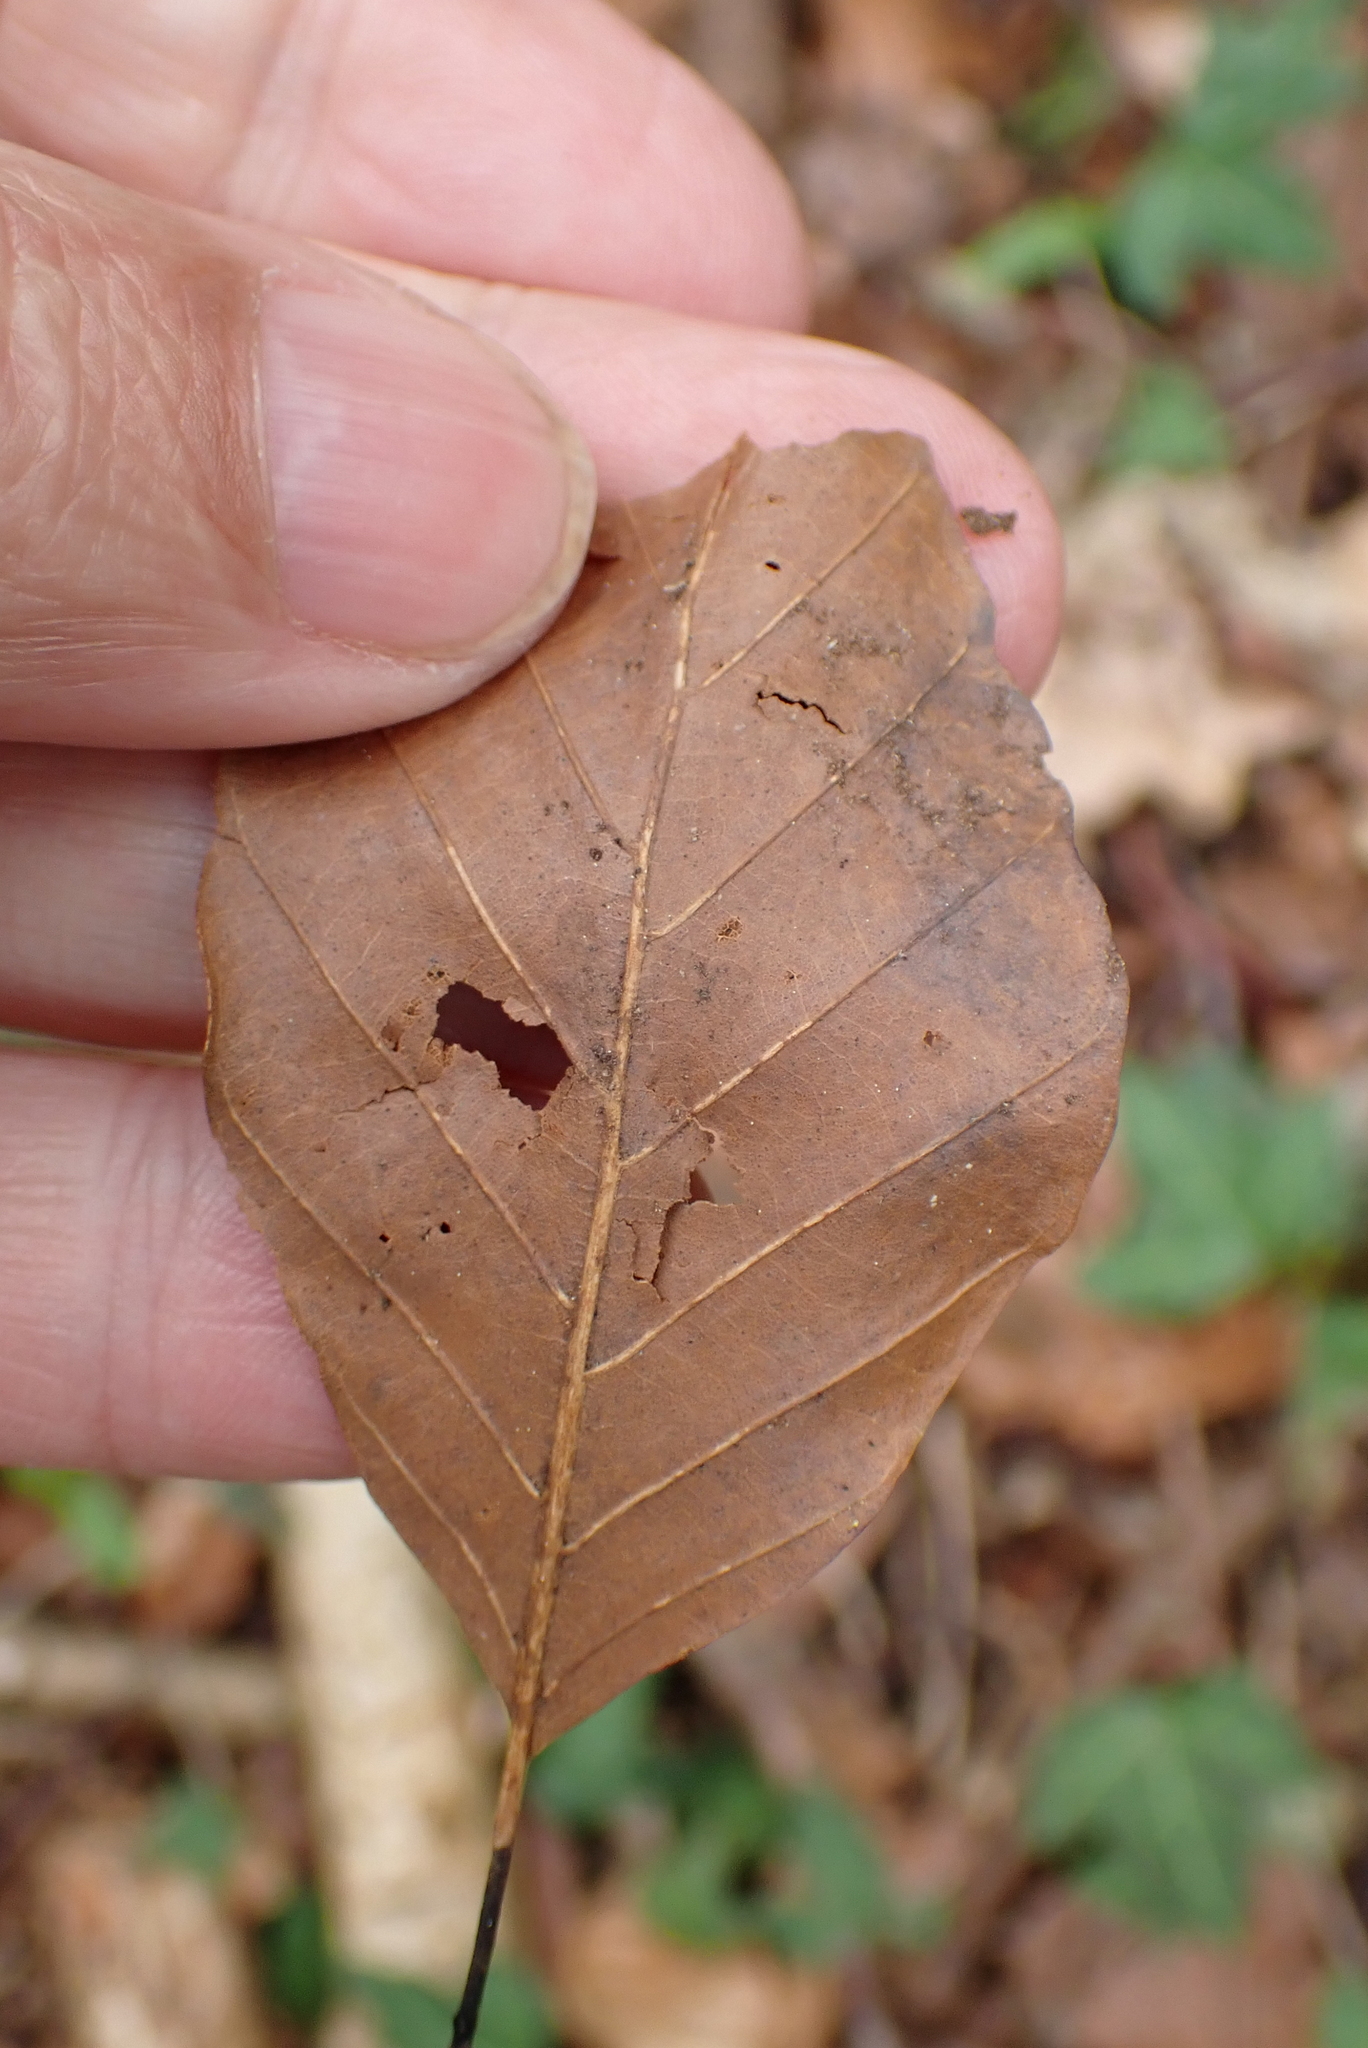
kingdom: Plantae
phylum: Tracheophyta
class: Magnoliopsida
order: Fagales
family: Fagaceae
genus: Fagus
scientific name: Fagus sylvatica
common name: Beech
